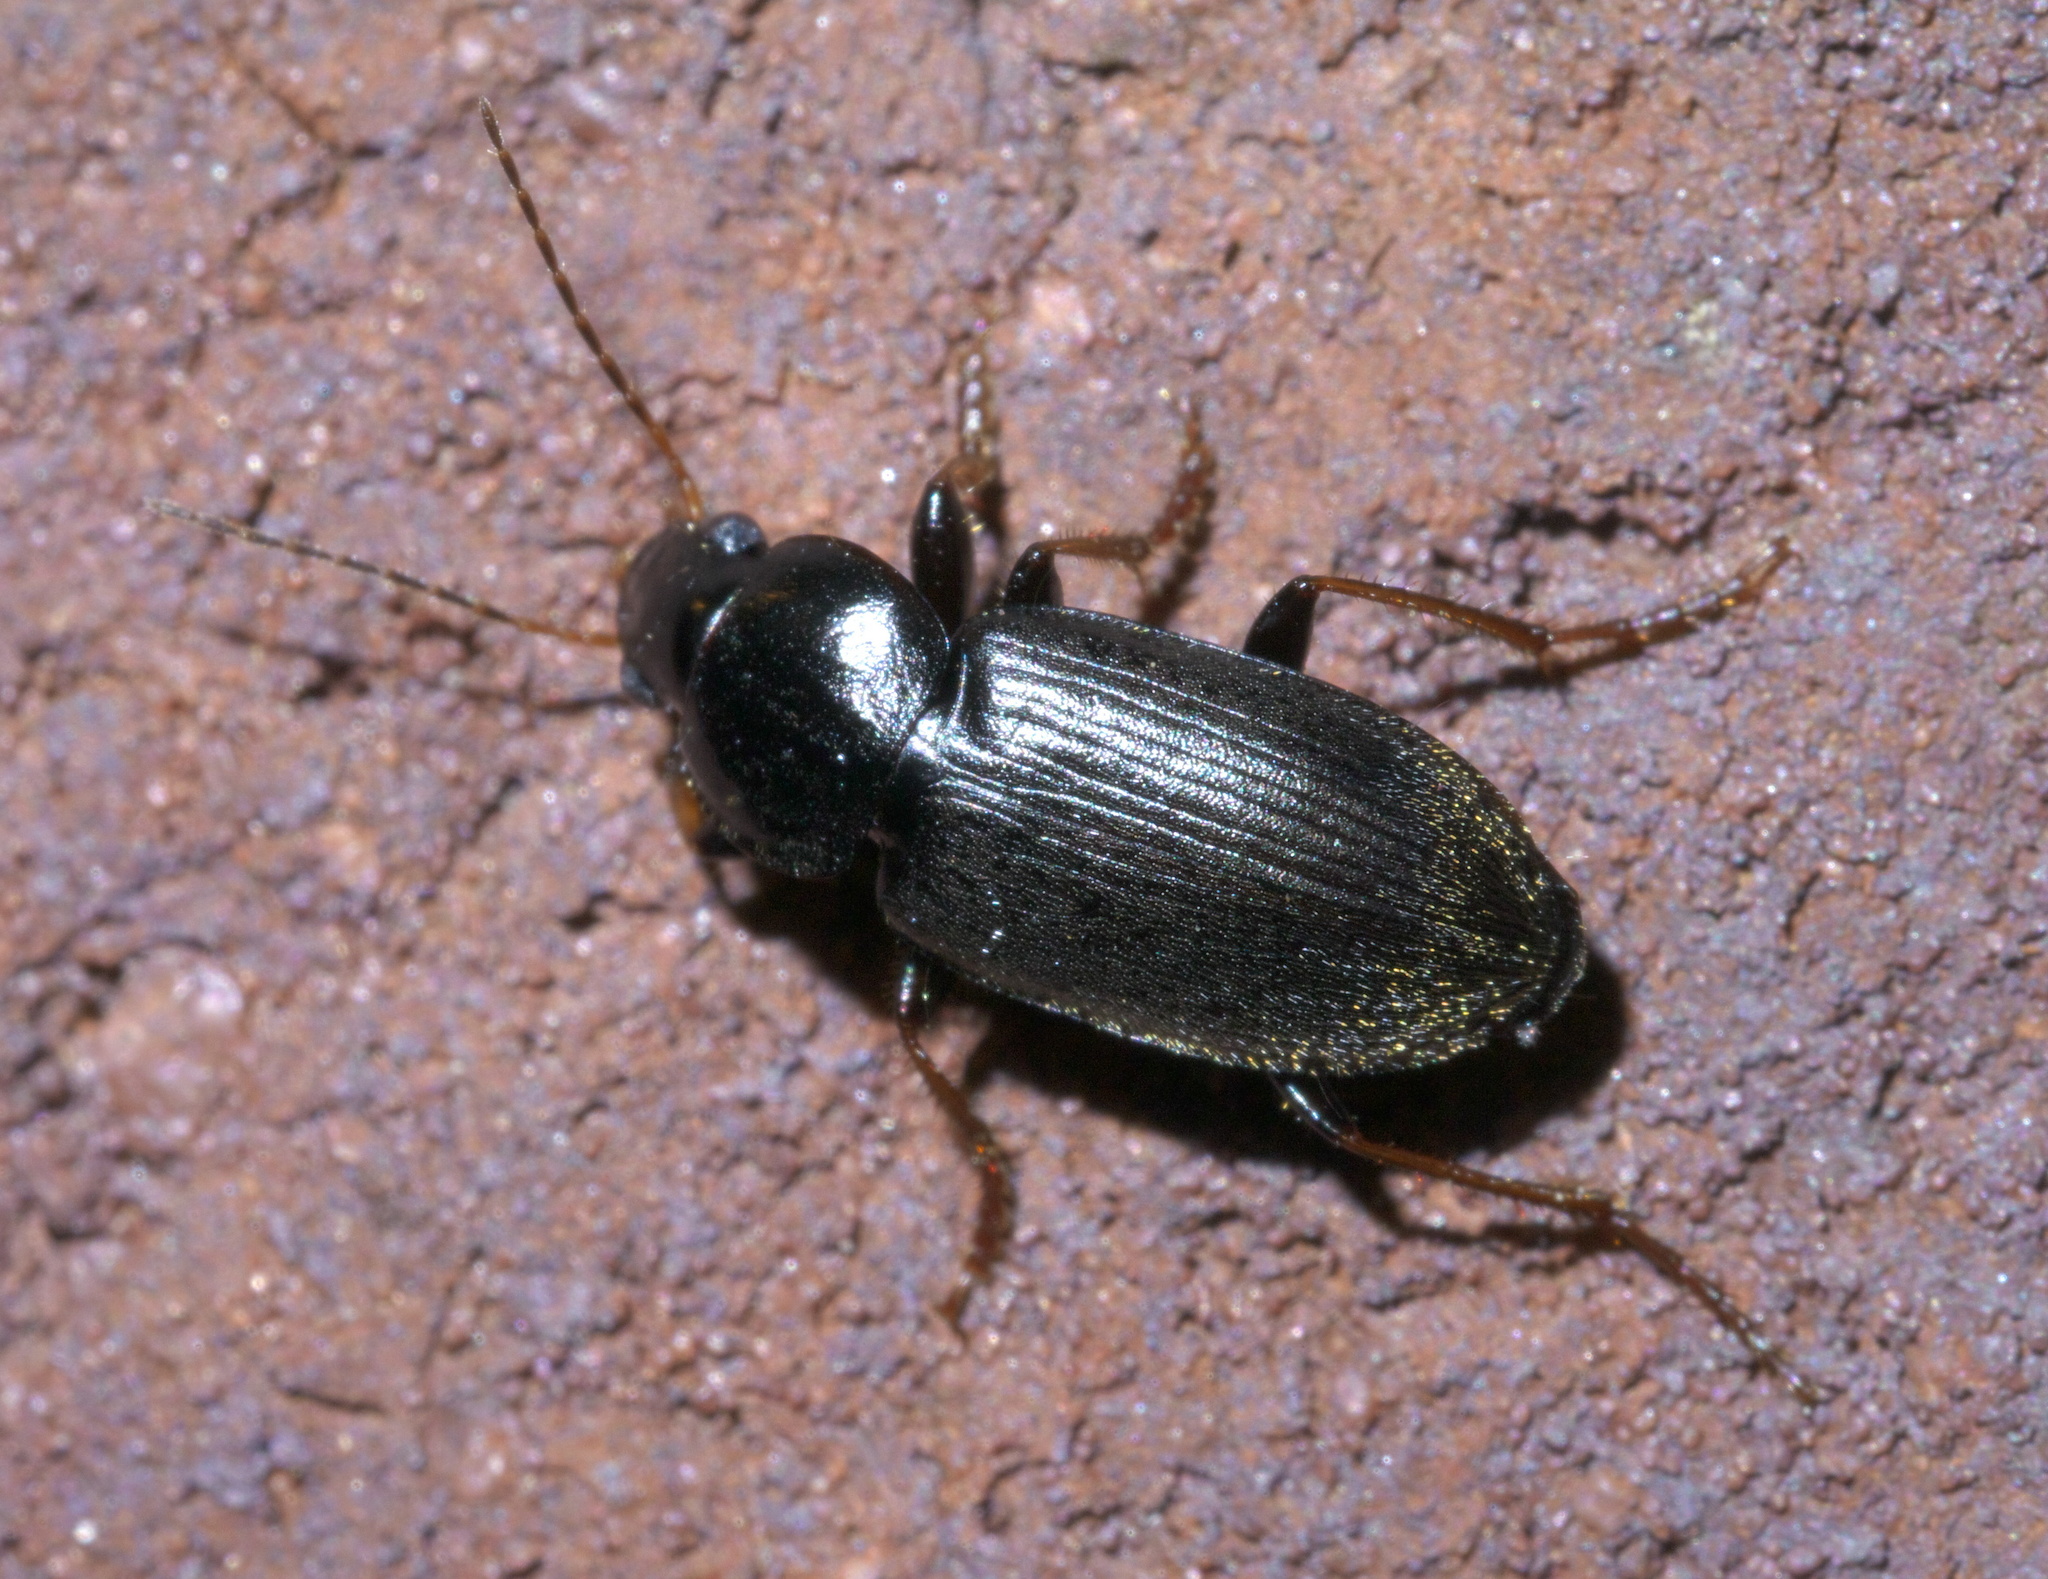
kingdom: Animalia
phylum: Arthropoda
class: Insecta
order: Coleoptera
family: Carabidae
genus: Amphasia
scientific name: Amphasia sericea
